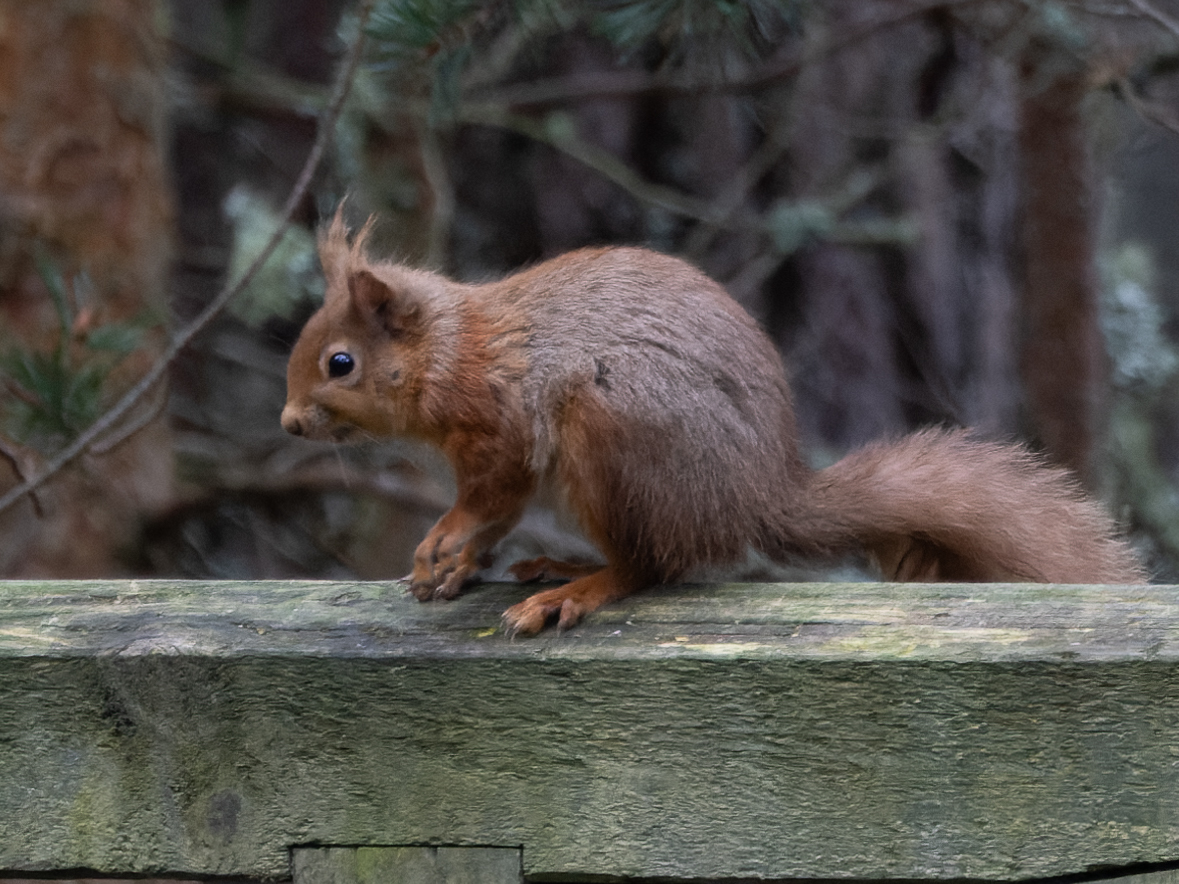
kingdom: Animalia
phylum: Chordata
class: Mammalia
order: Rodentia
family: Sciuridae
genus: Sciurus
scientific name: Sciurus vulgaris
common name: Eurasian red squirrel
